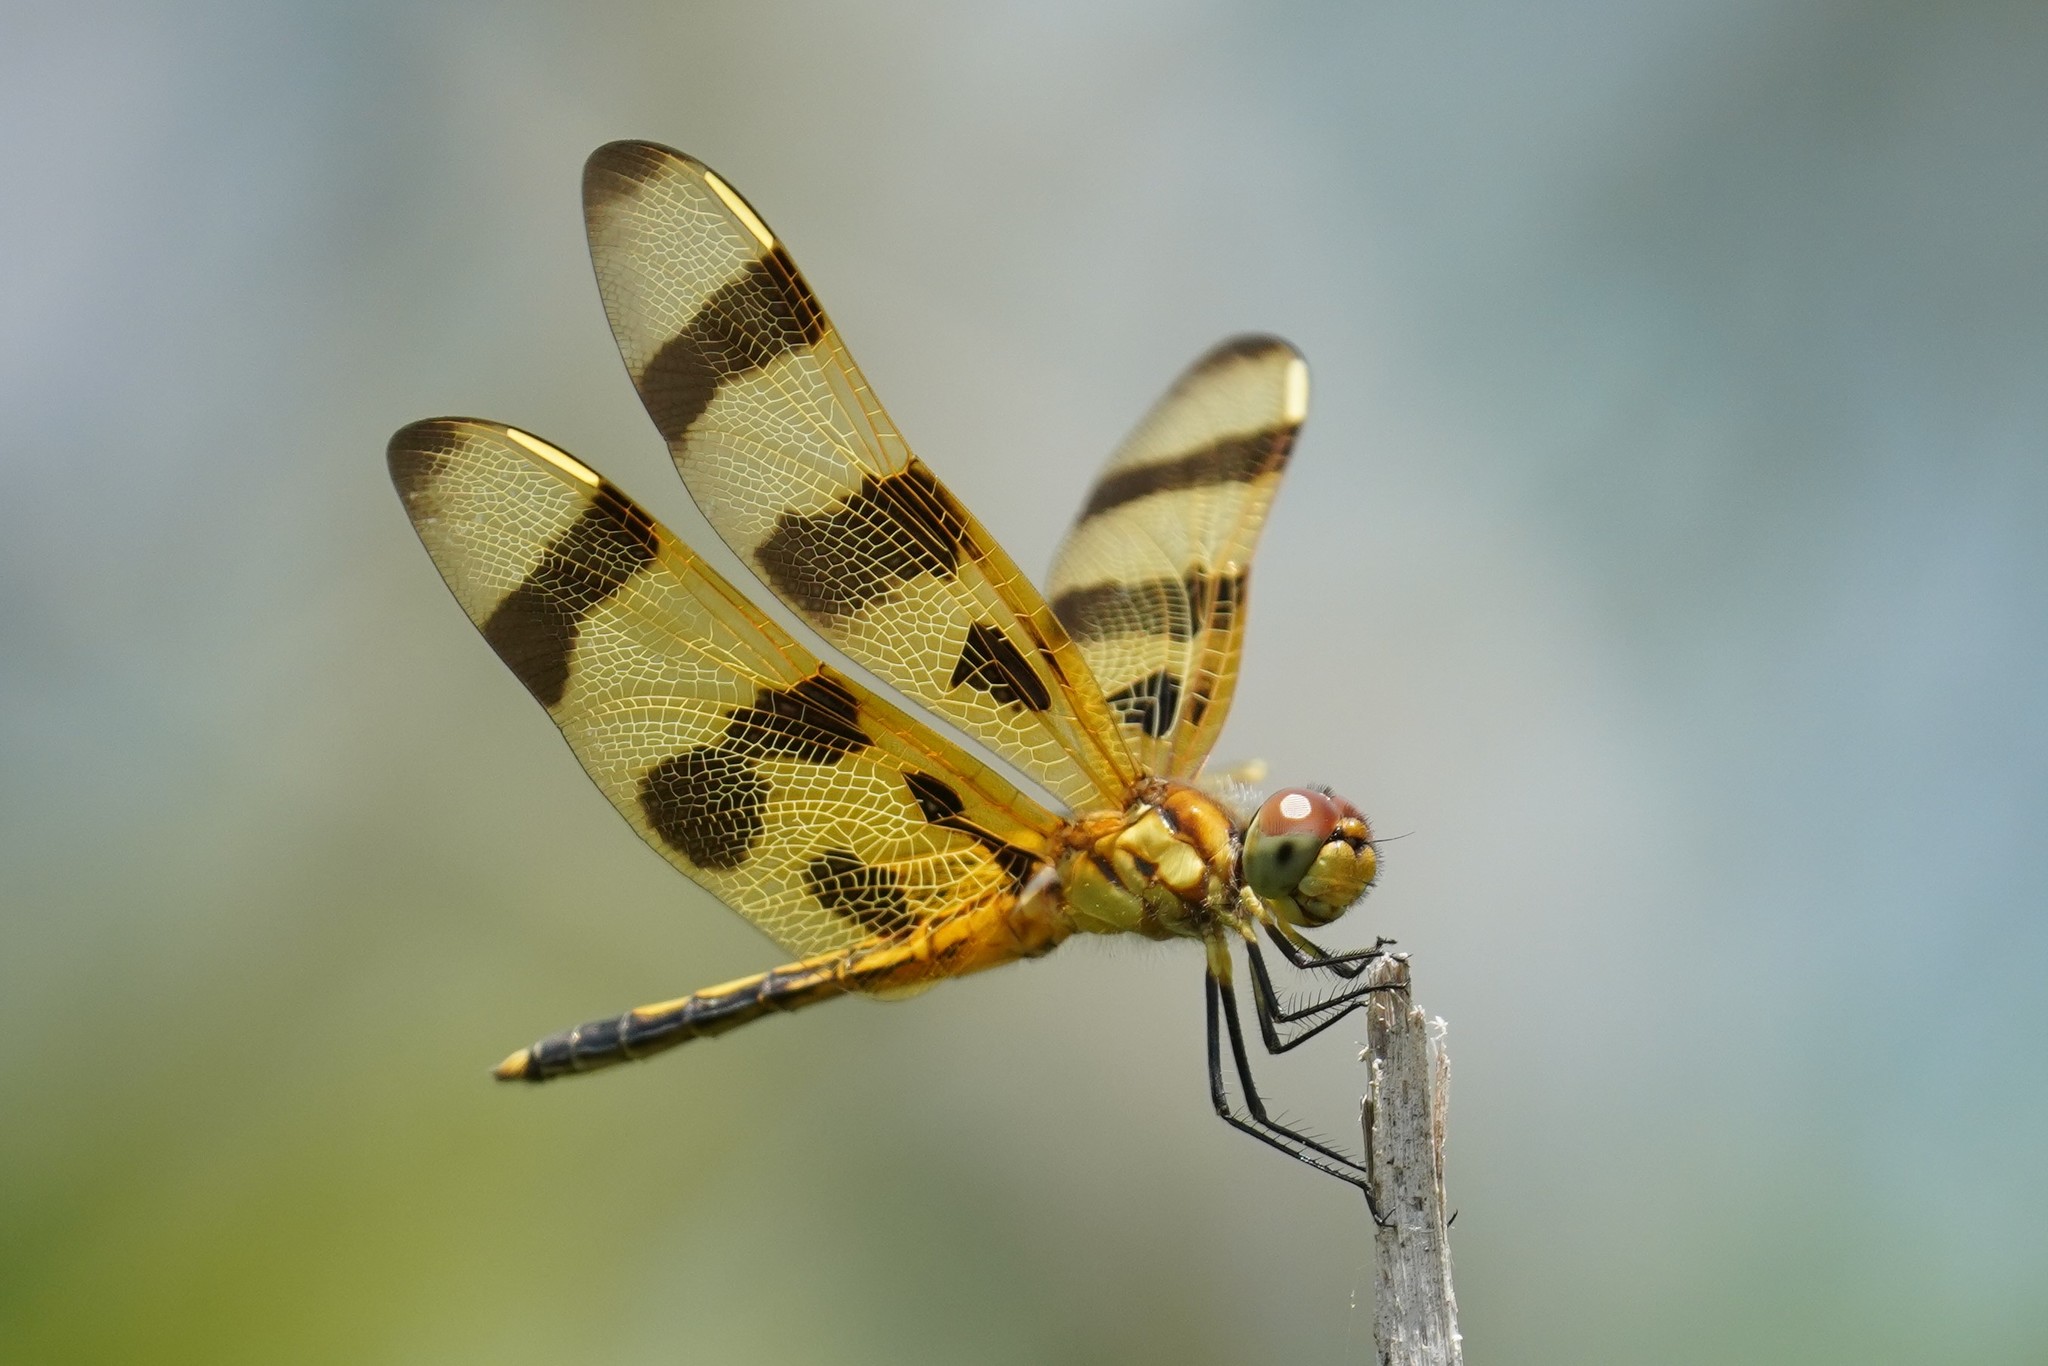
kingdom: Animalia
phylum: Arthropoda
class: Insecta
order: Odonata
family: Libellulidae
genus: Celithemis
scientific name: Celithemis eponina
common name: Halloween pennant
